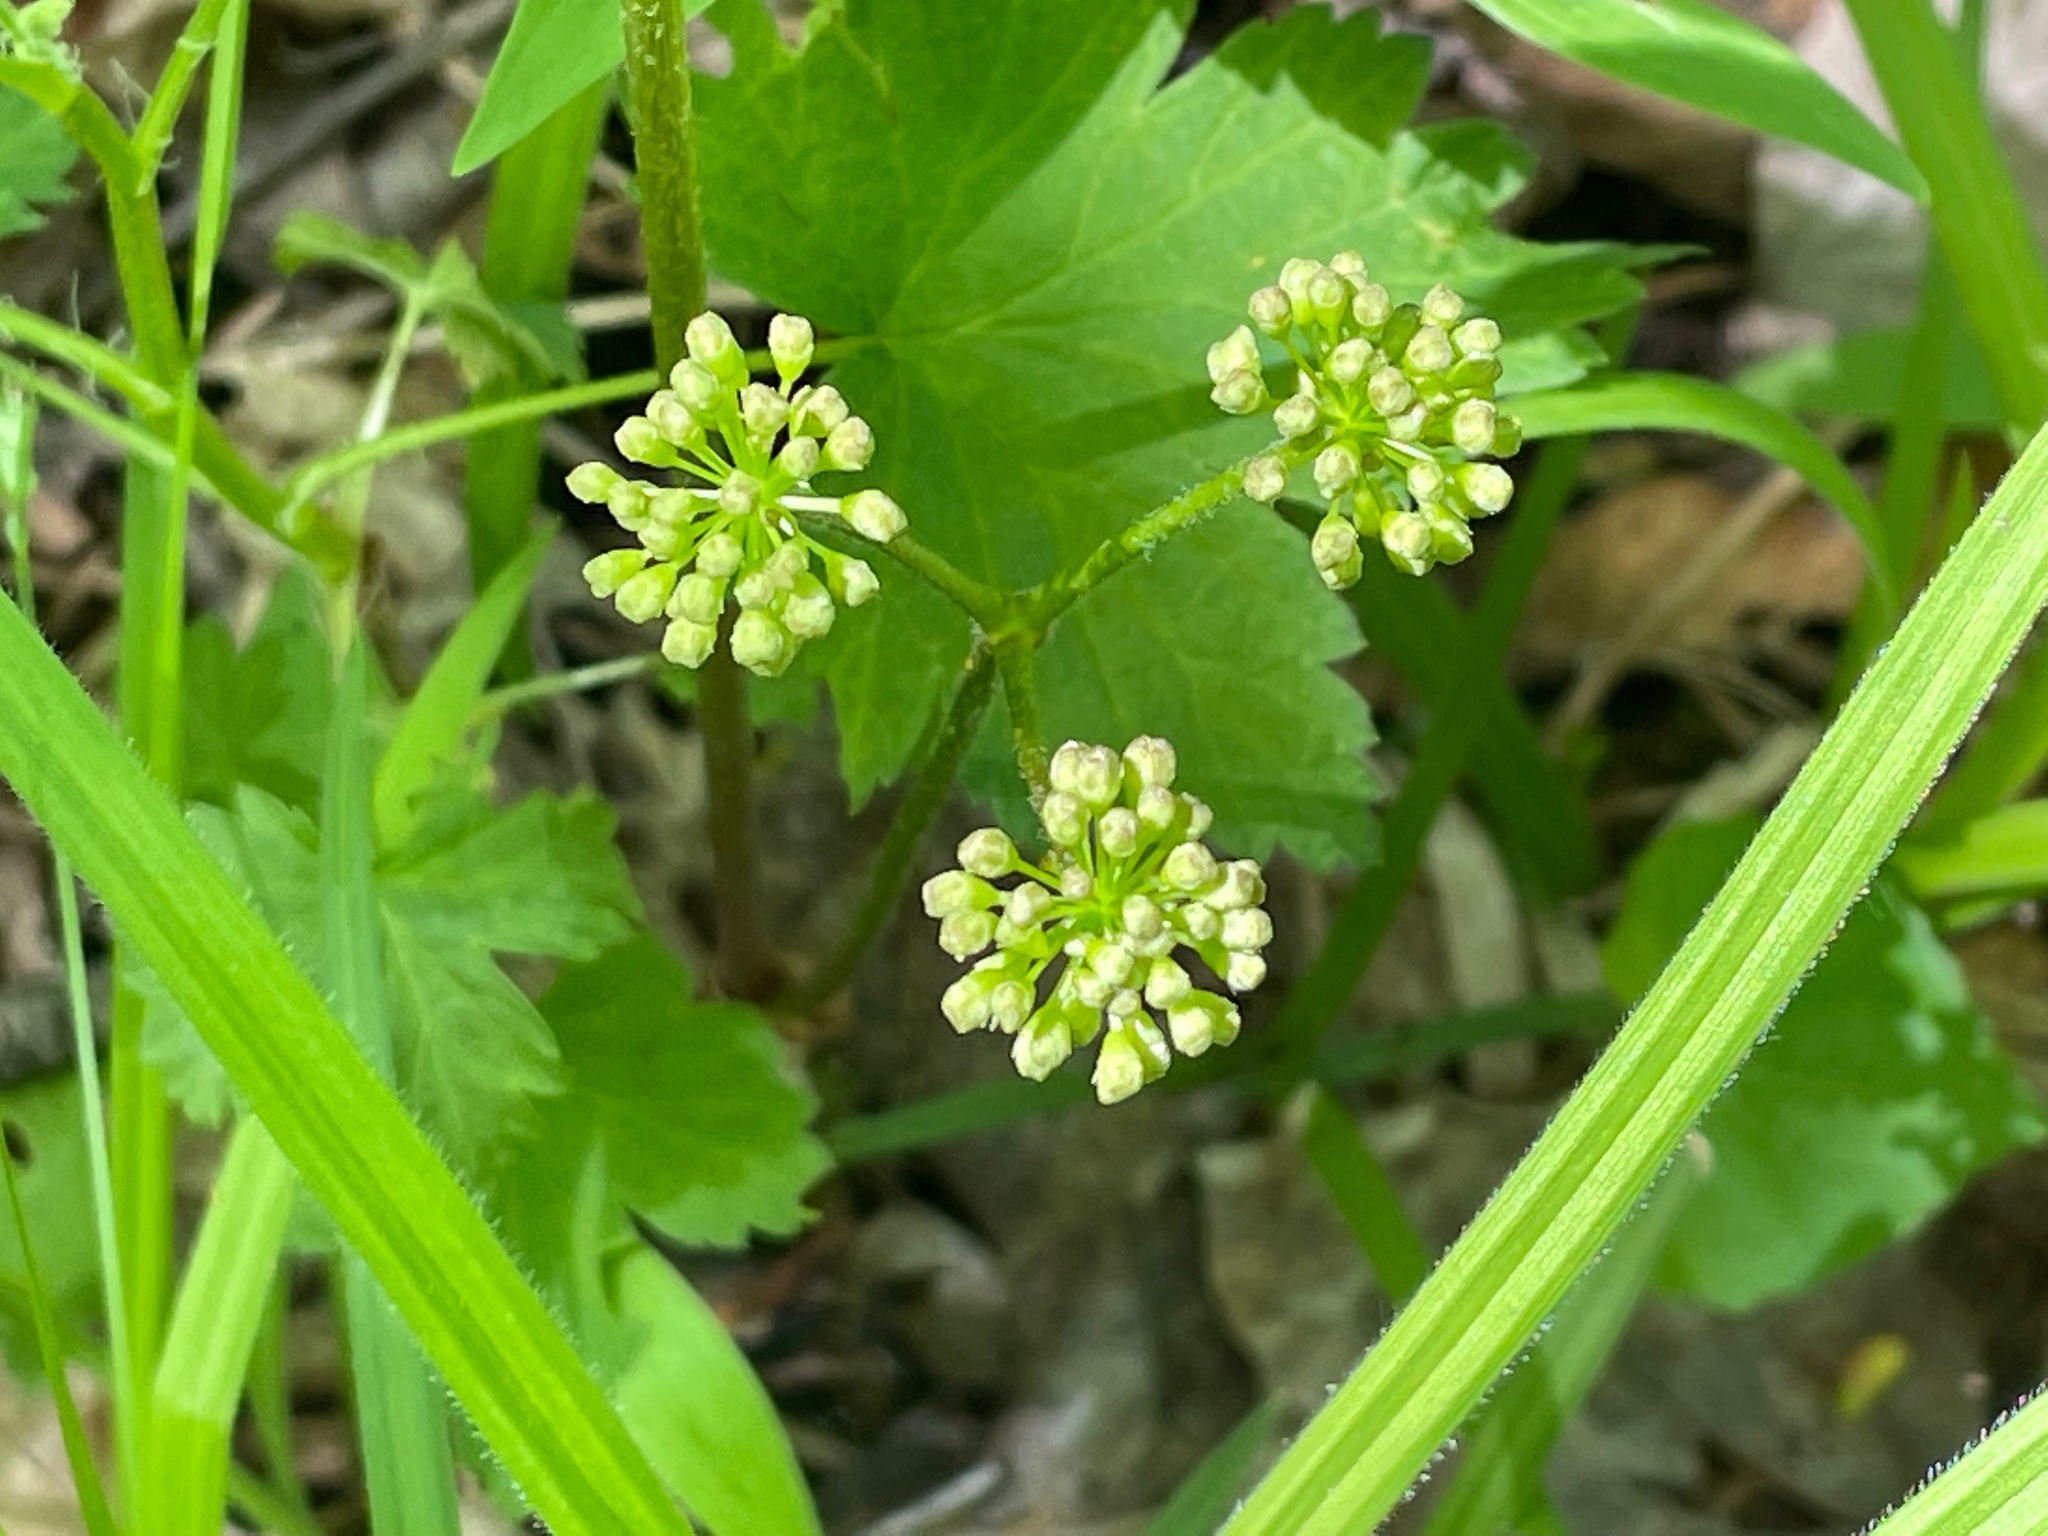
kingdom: Plantae
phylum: Tracheophyta
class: Magnoliopsida
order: Apiales
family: Araliaceae
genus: Aralia
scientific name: Aralia nudicaulis
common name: Wild sarsaparilla
